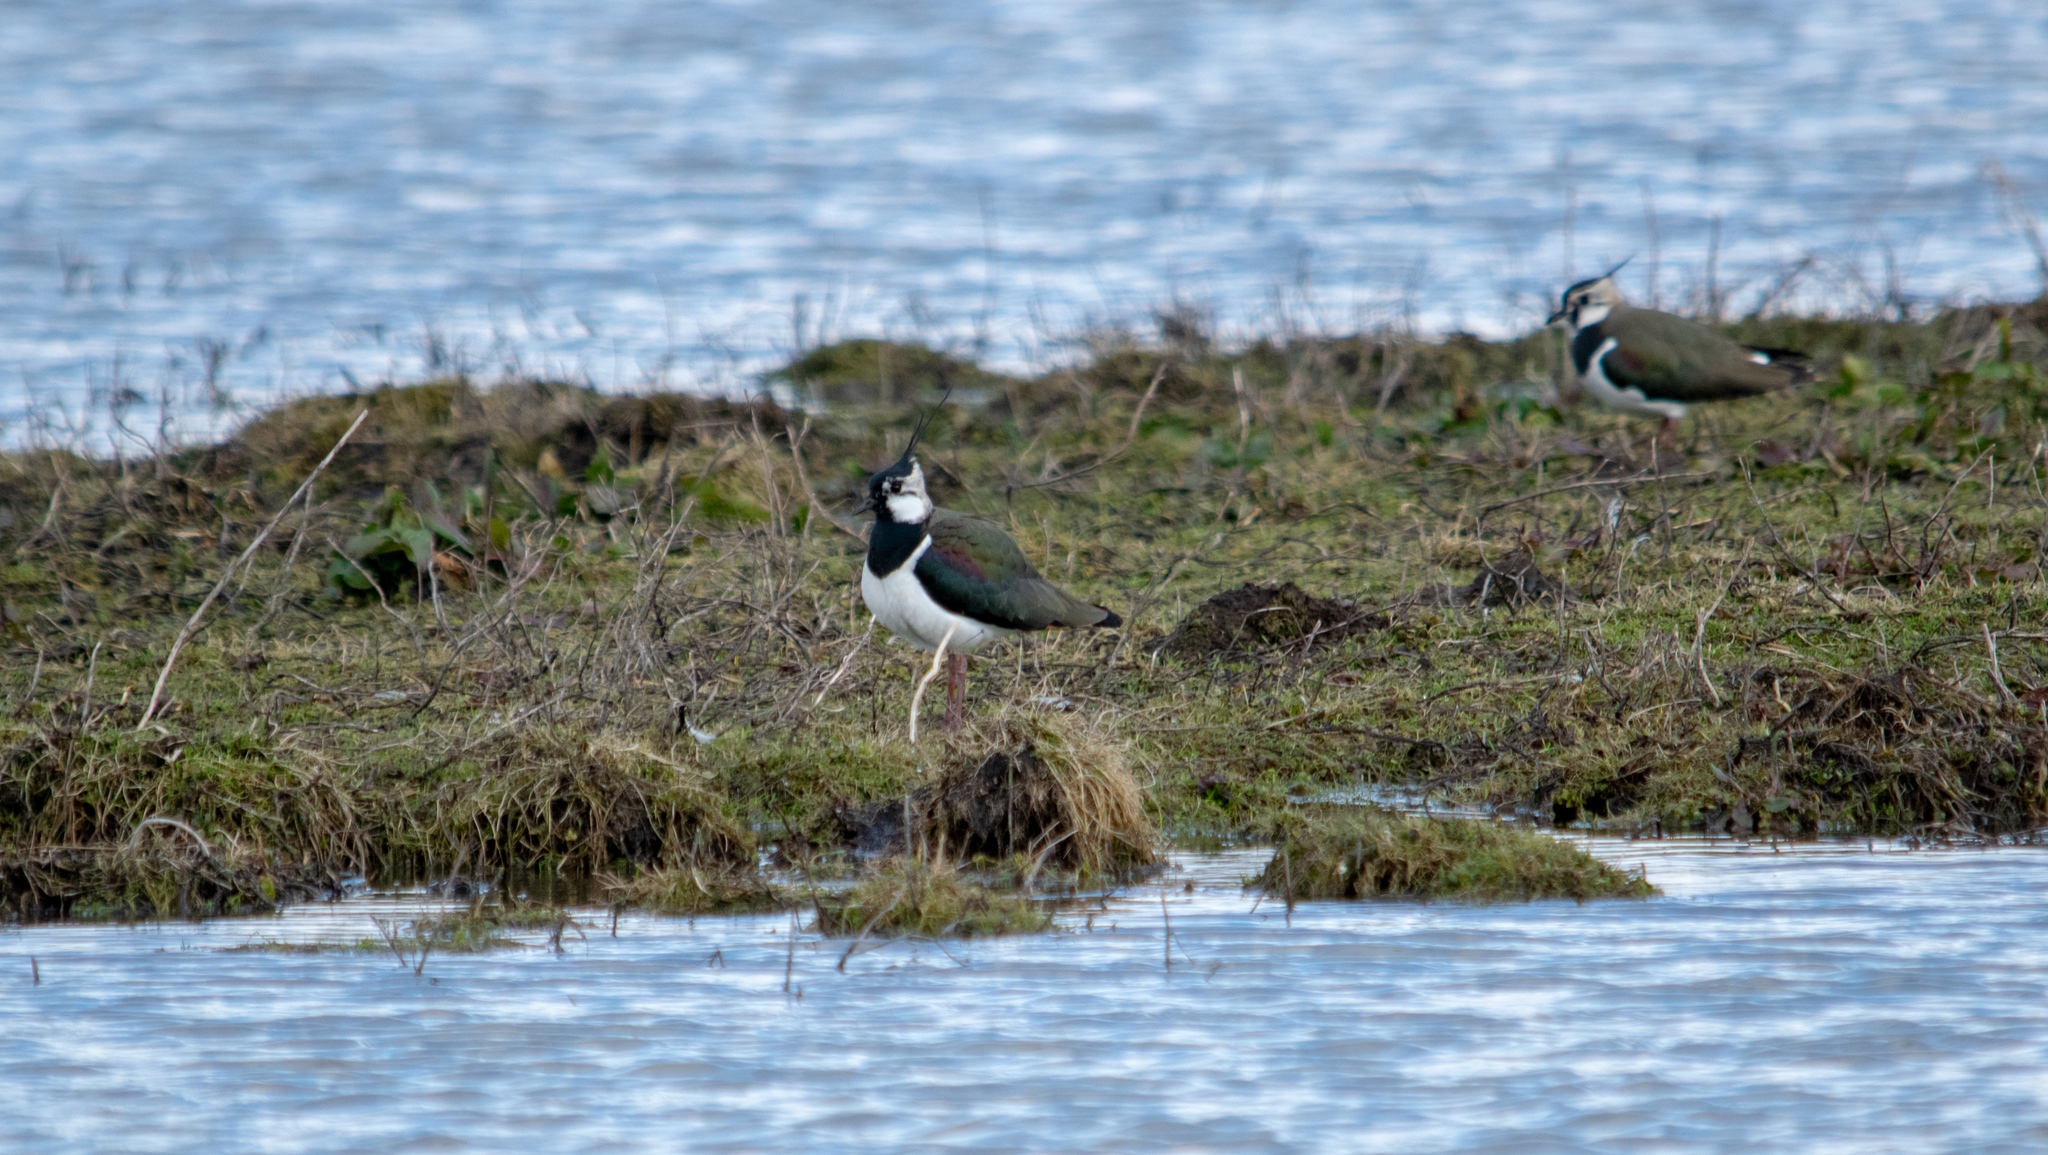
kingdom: Animalia
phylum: Chordata
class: Aves
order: Charadriiformes
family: Charadriidae
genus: Vanellus
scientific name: Vanellus vanellus
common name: Northern lapwing
